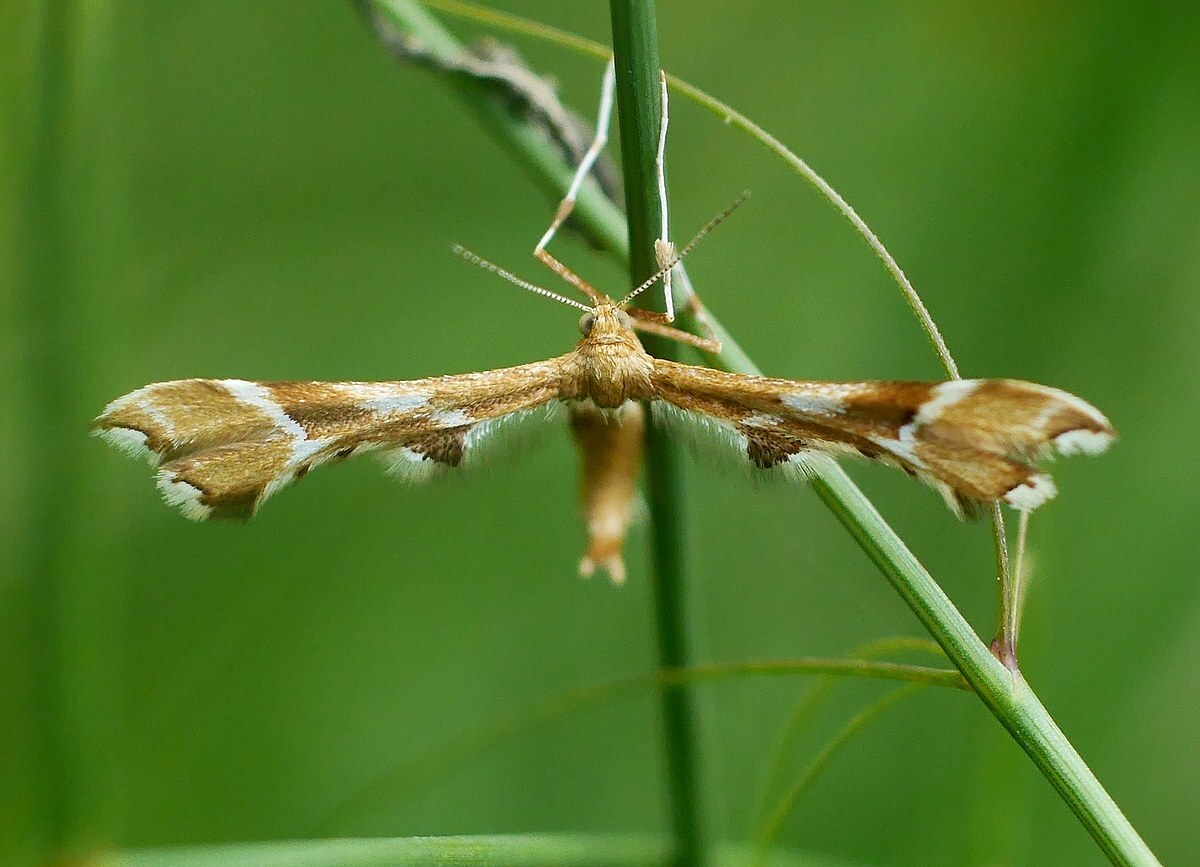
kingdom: Animalia
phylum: Arthropoda
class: Insecta
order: Lepidoptera
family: Pterophoridae
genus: Cnaemidophorus
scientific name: Cnaemidophorus rhododactyla
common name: Rose plume
